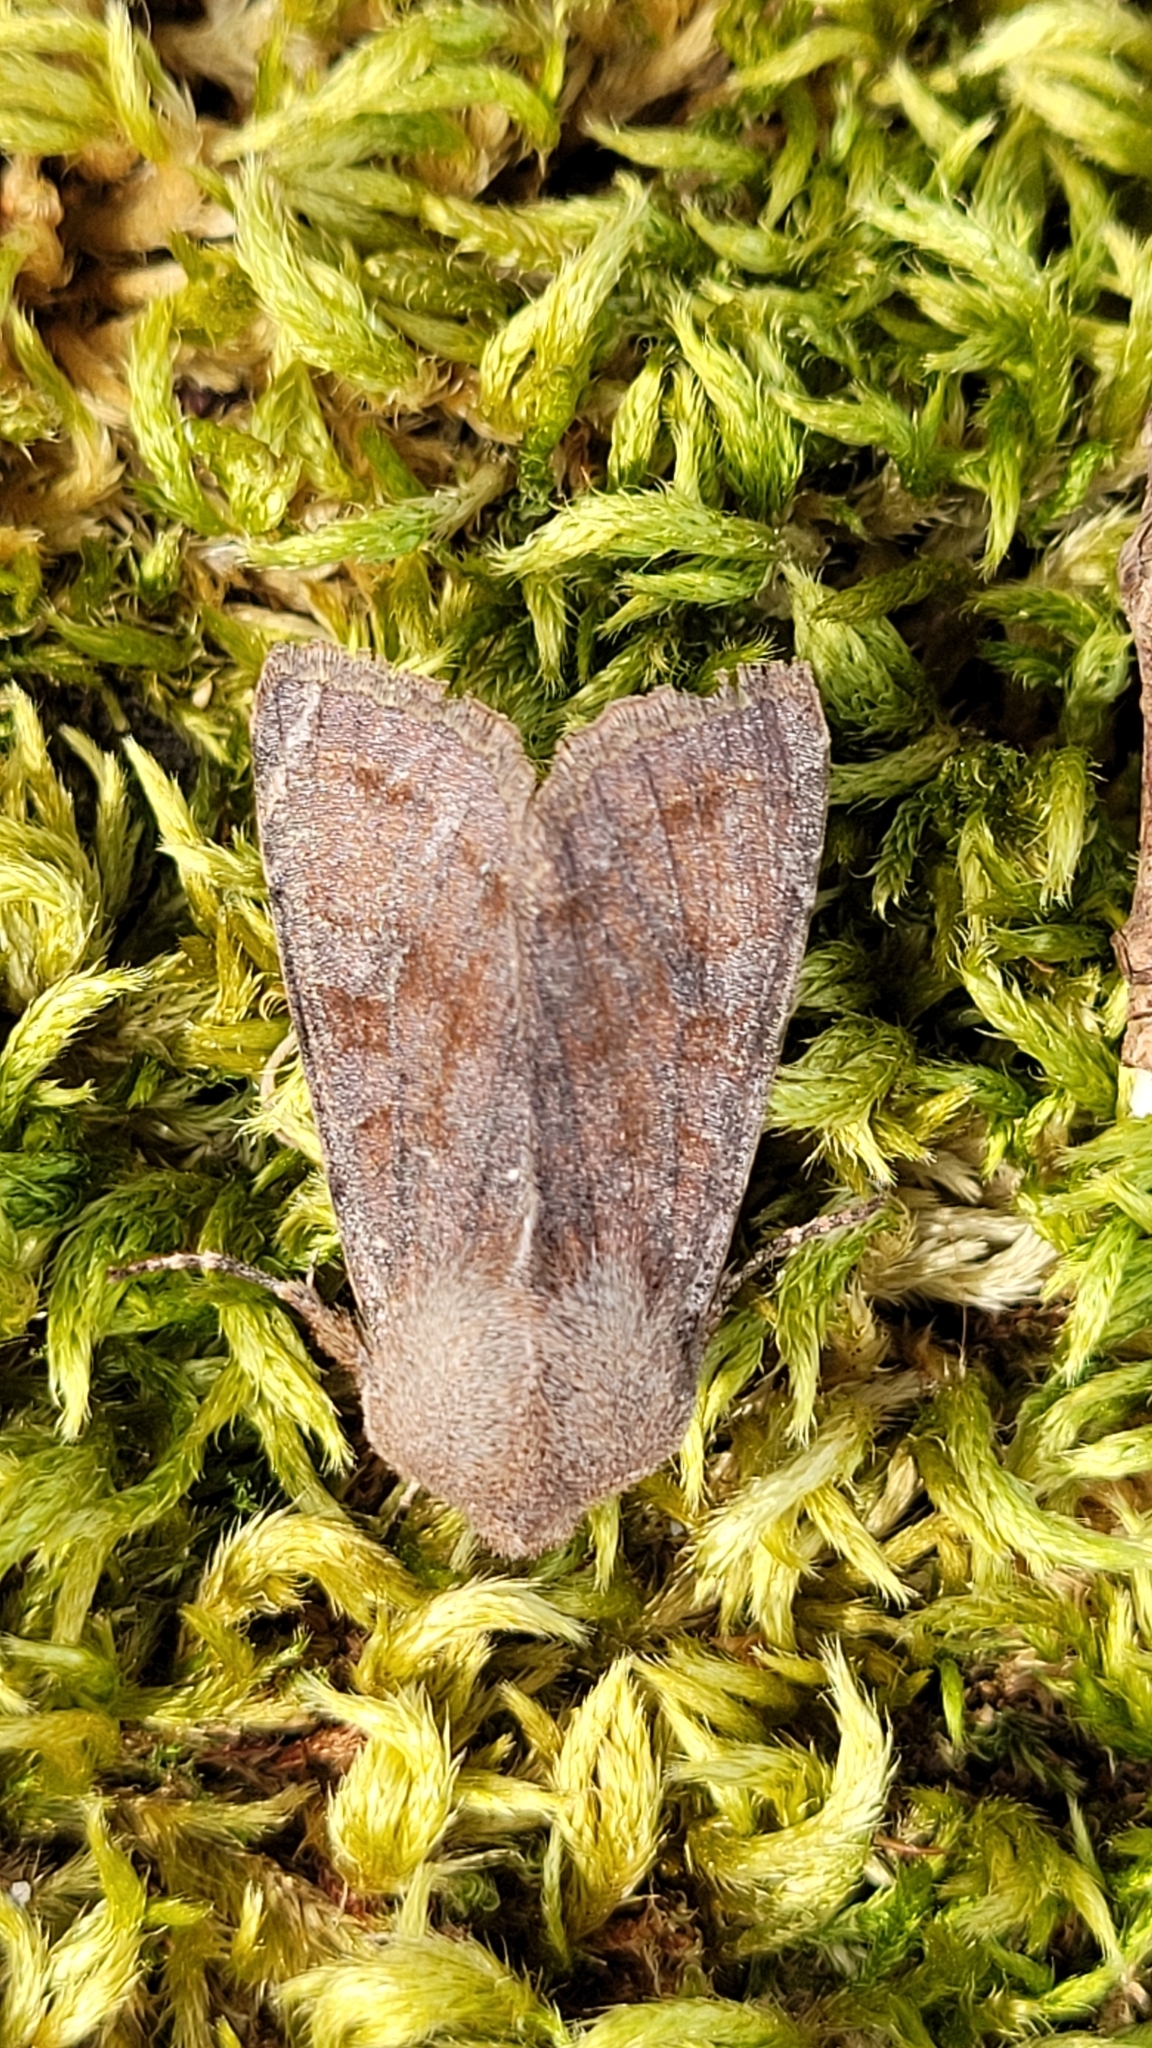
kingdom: Animalia
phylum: Arthropoda
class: Insecta
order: Lepidoptera
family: Noctuidae
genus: Orthosia
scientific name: Orthosia incerta
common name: Clouded drab
